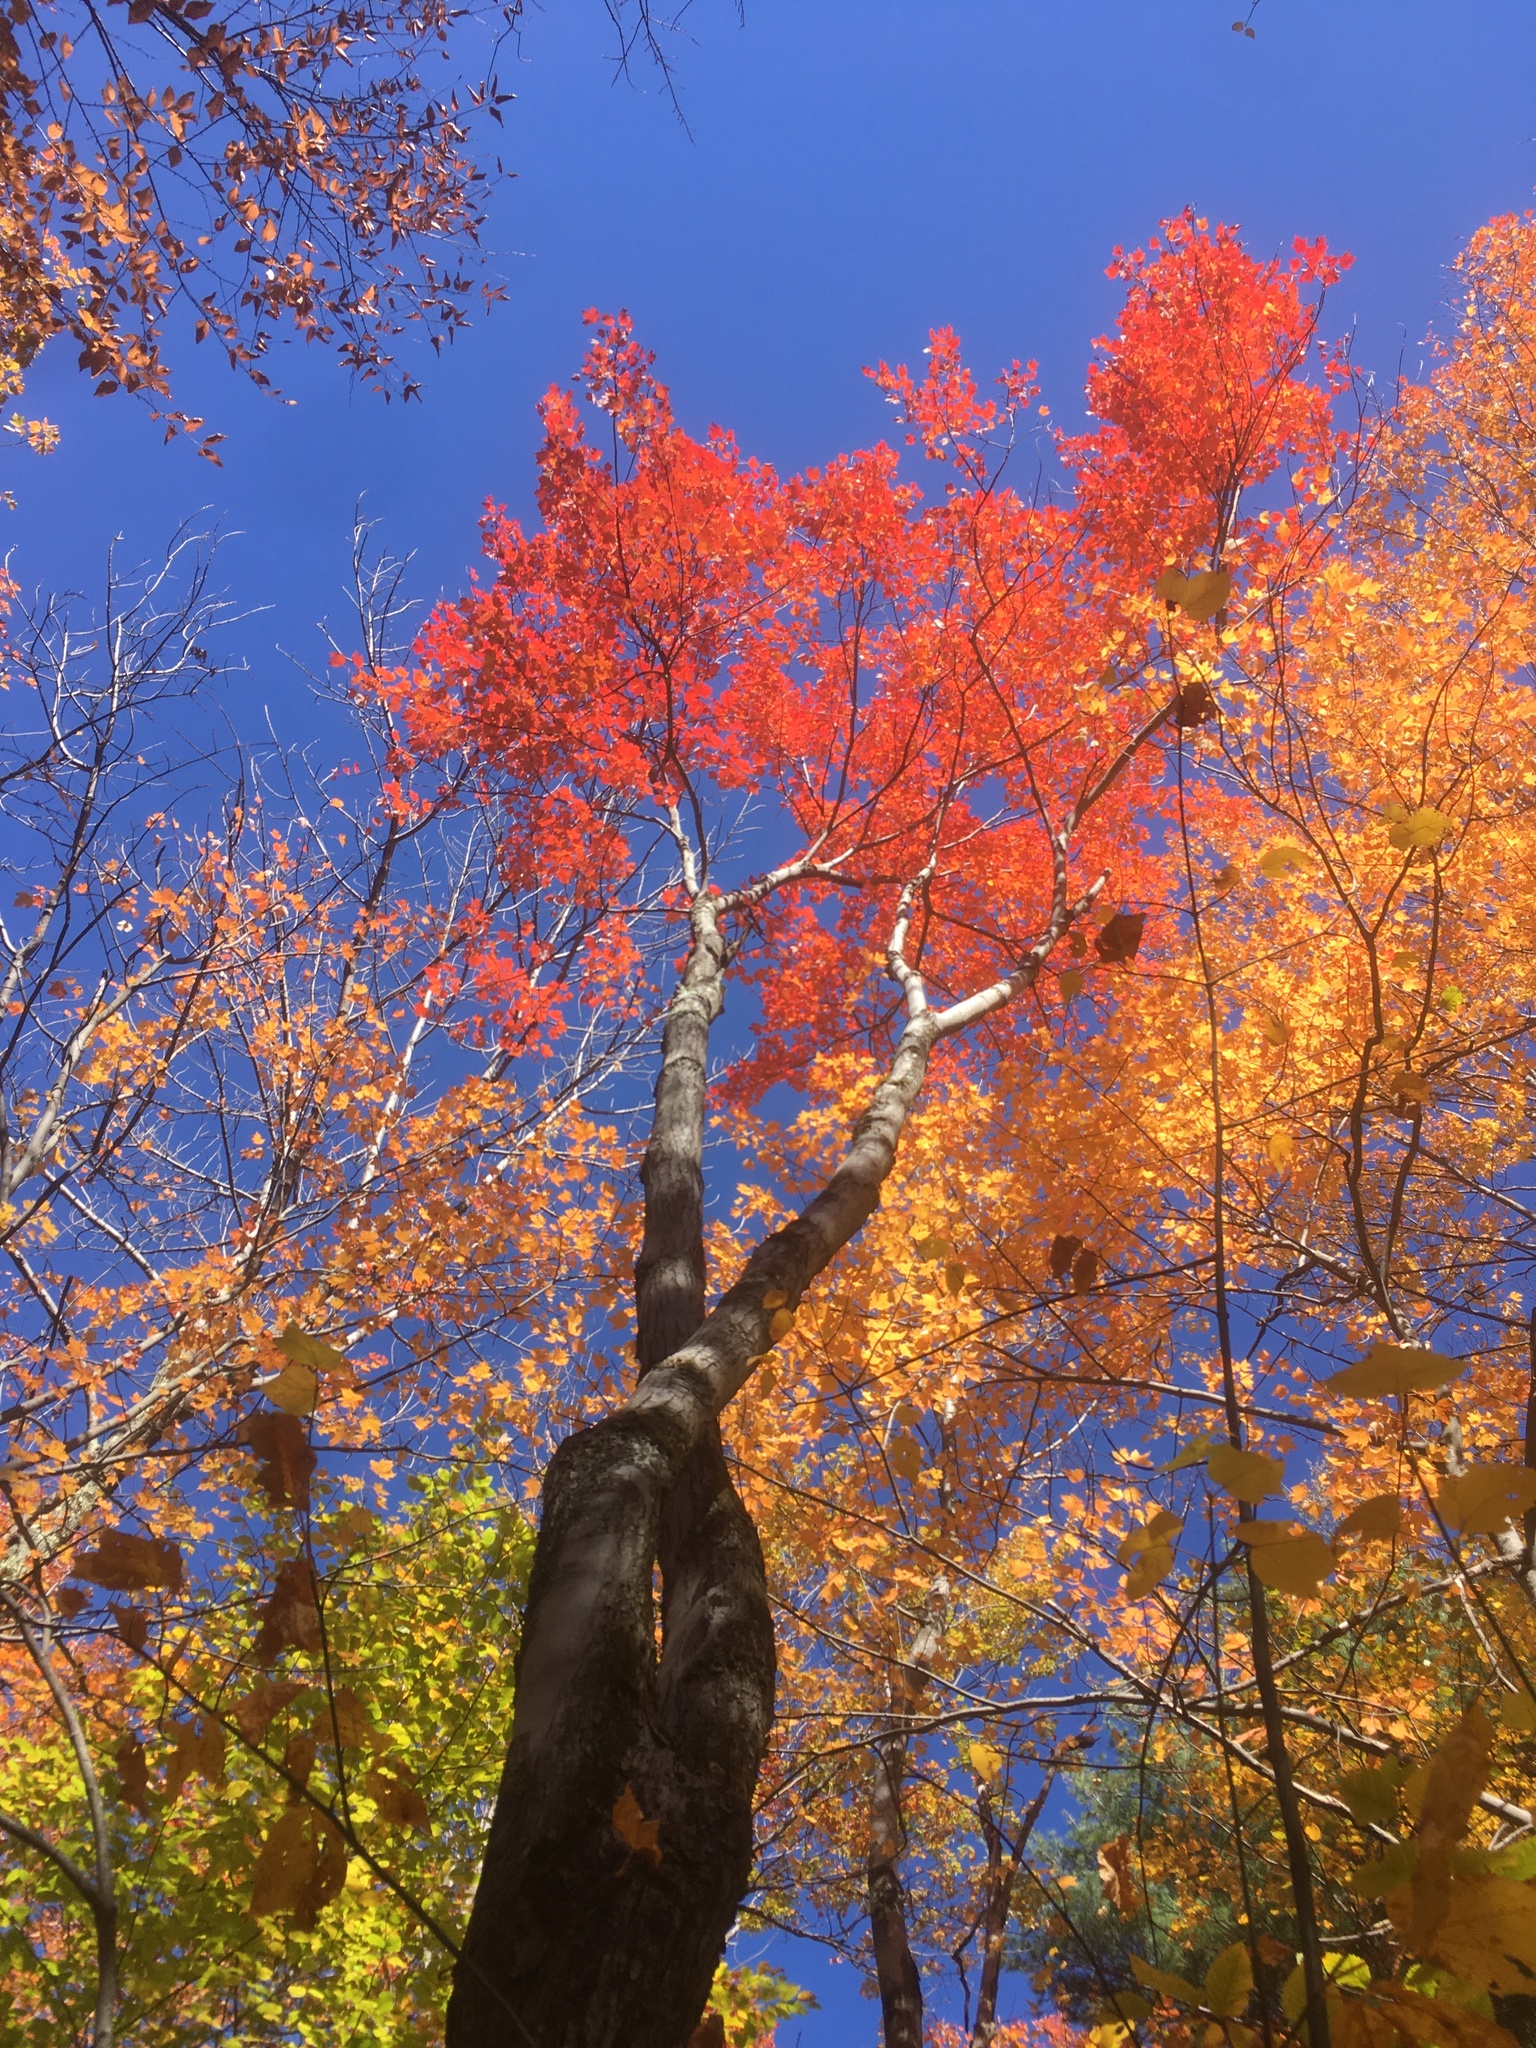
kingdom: Plantae
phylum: Tracheophyta
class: Magnoliopsida
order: Sapindales
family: Sapindaceae
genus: Acer
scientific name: Acer rubrum
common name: Red maple
